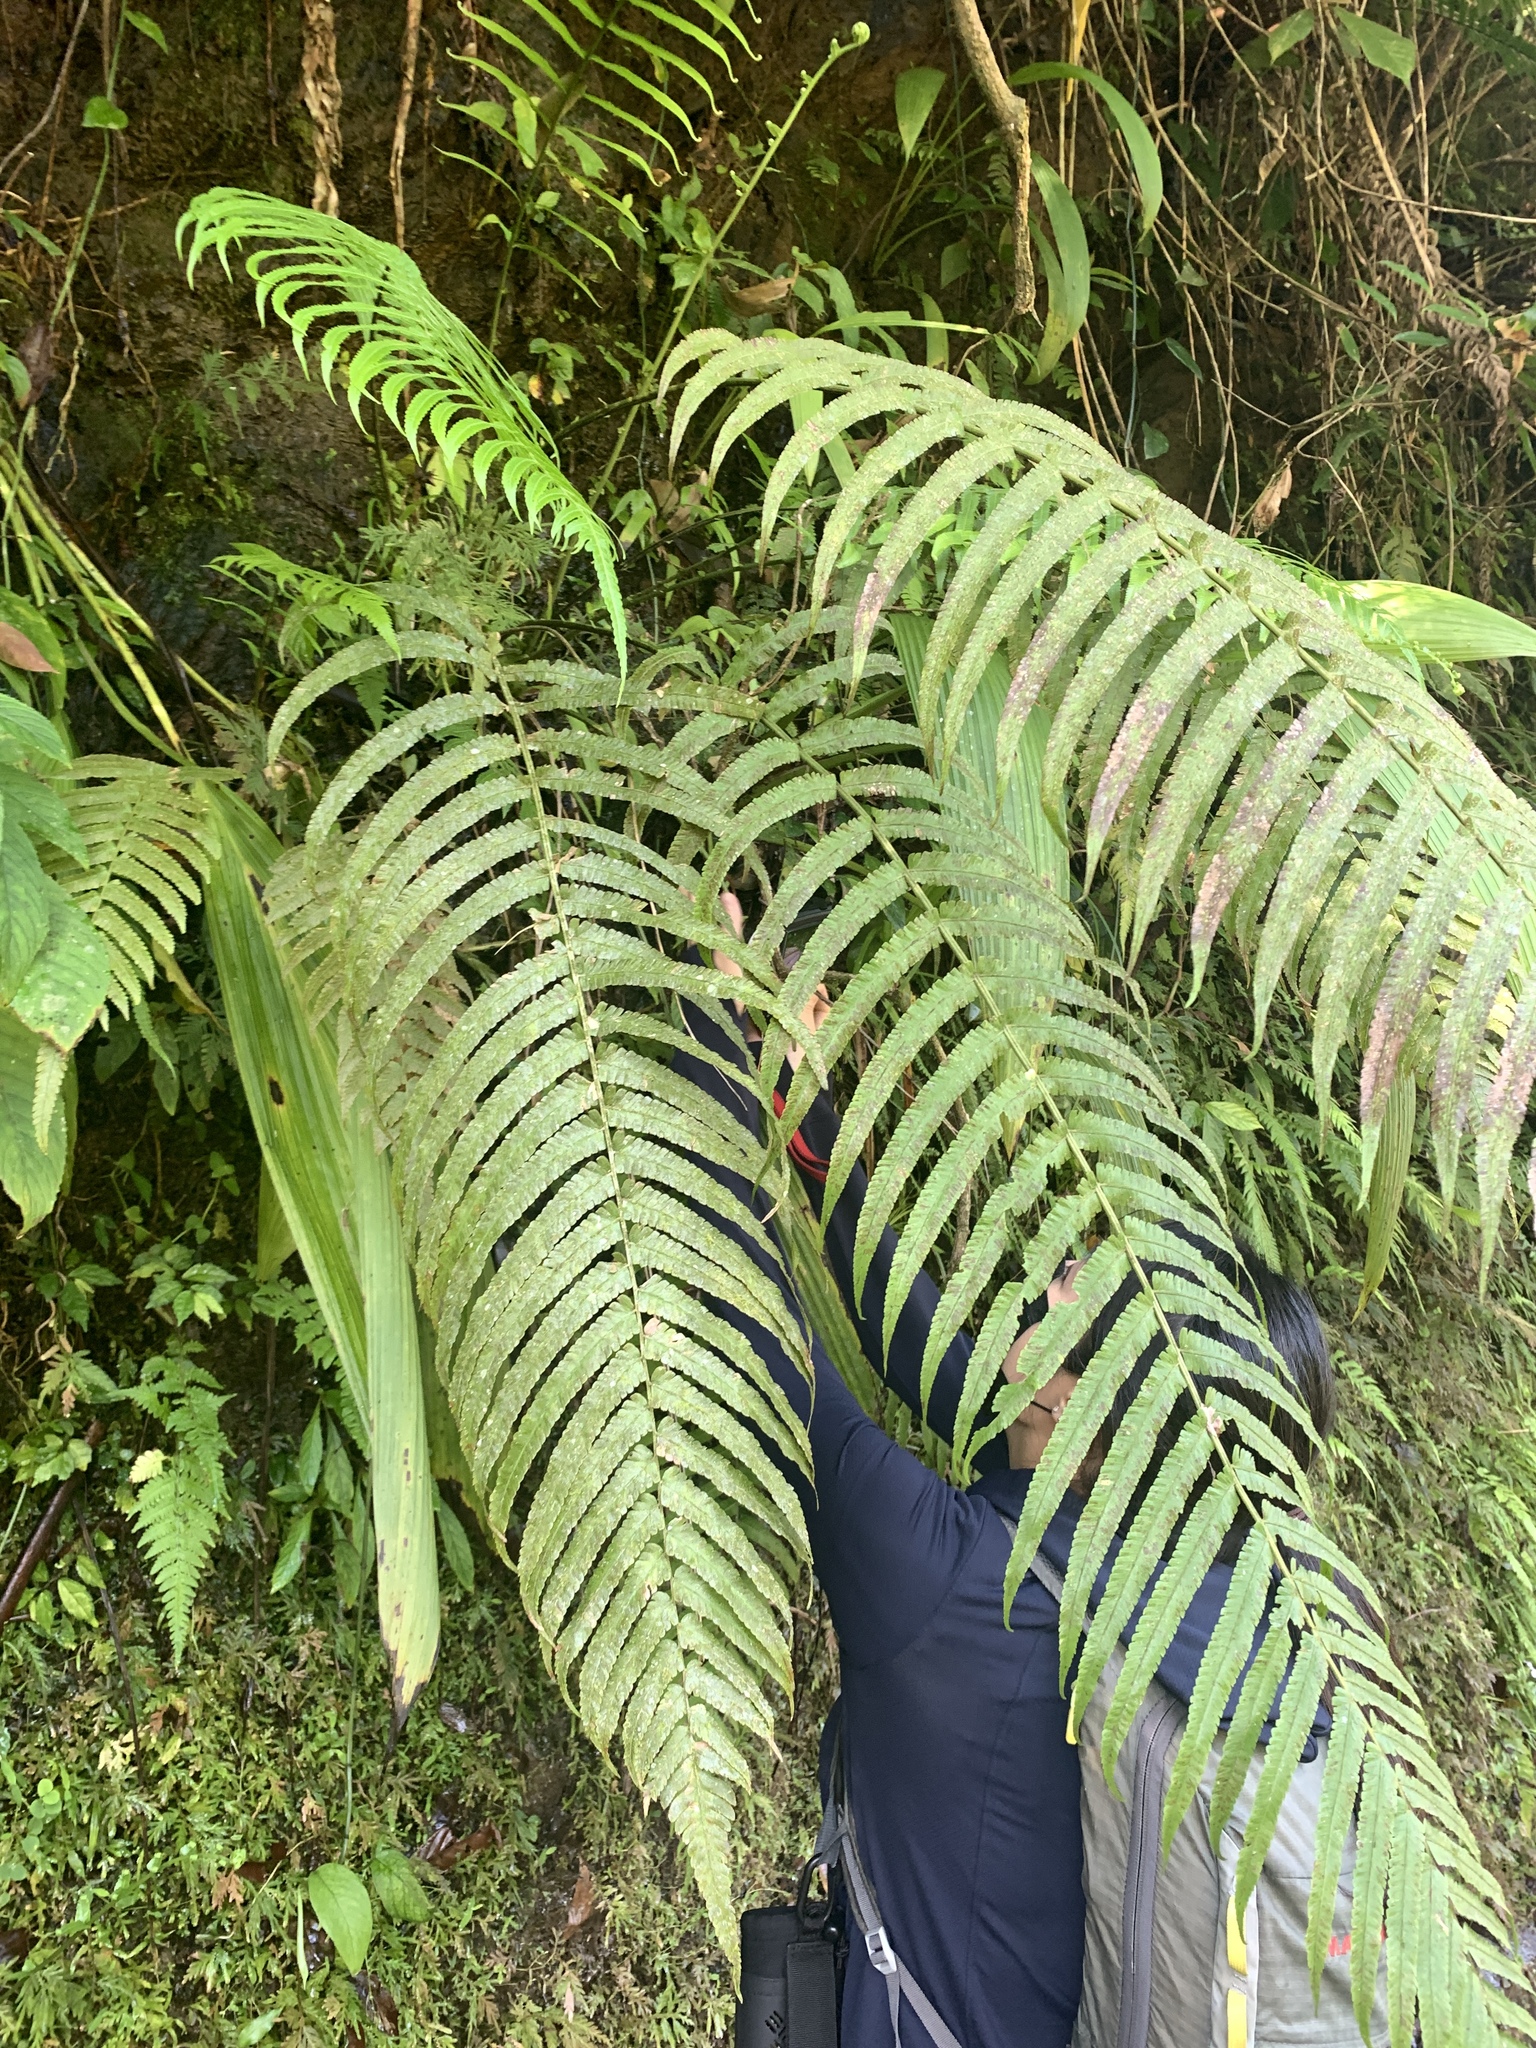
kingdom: Plantae
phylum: Tracheophyta
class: Polypodiopsida
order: Polypodiales
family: Thelypteridaceae
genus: Reholttumia
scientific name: Reholttumia truncata
